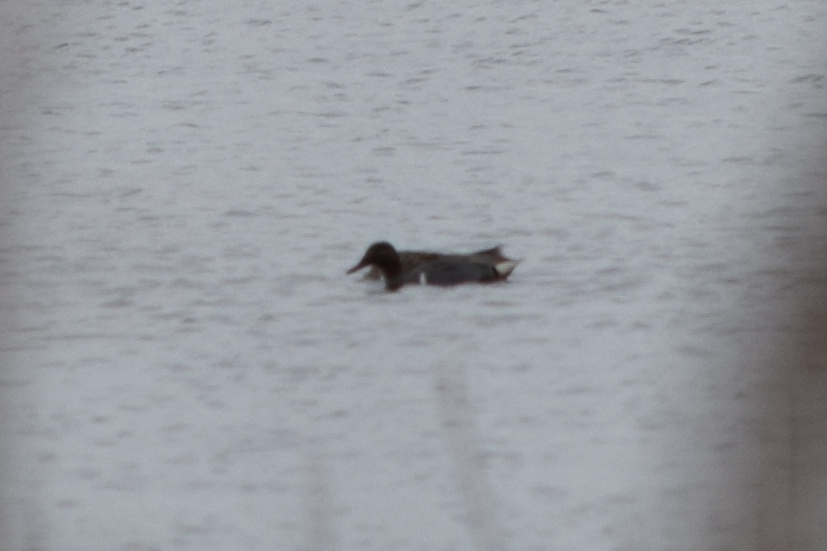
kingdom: Animalia
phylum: Chordata
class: Aves
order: Anseriformes
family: Anatidae
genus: Anas
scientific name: Anas crecca
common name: Eurasian teal
